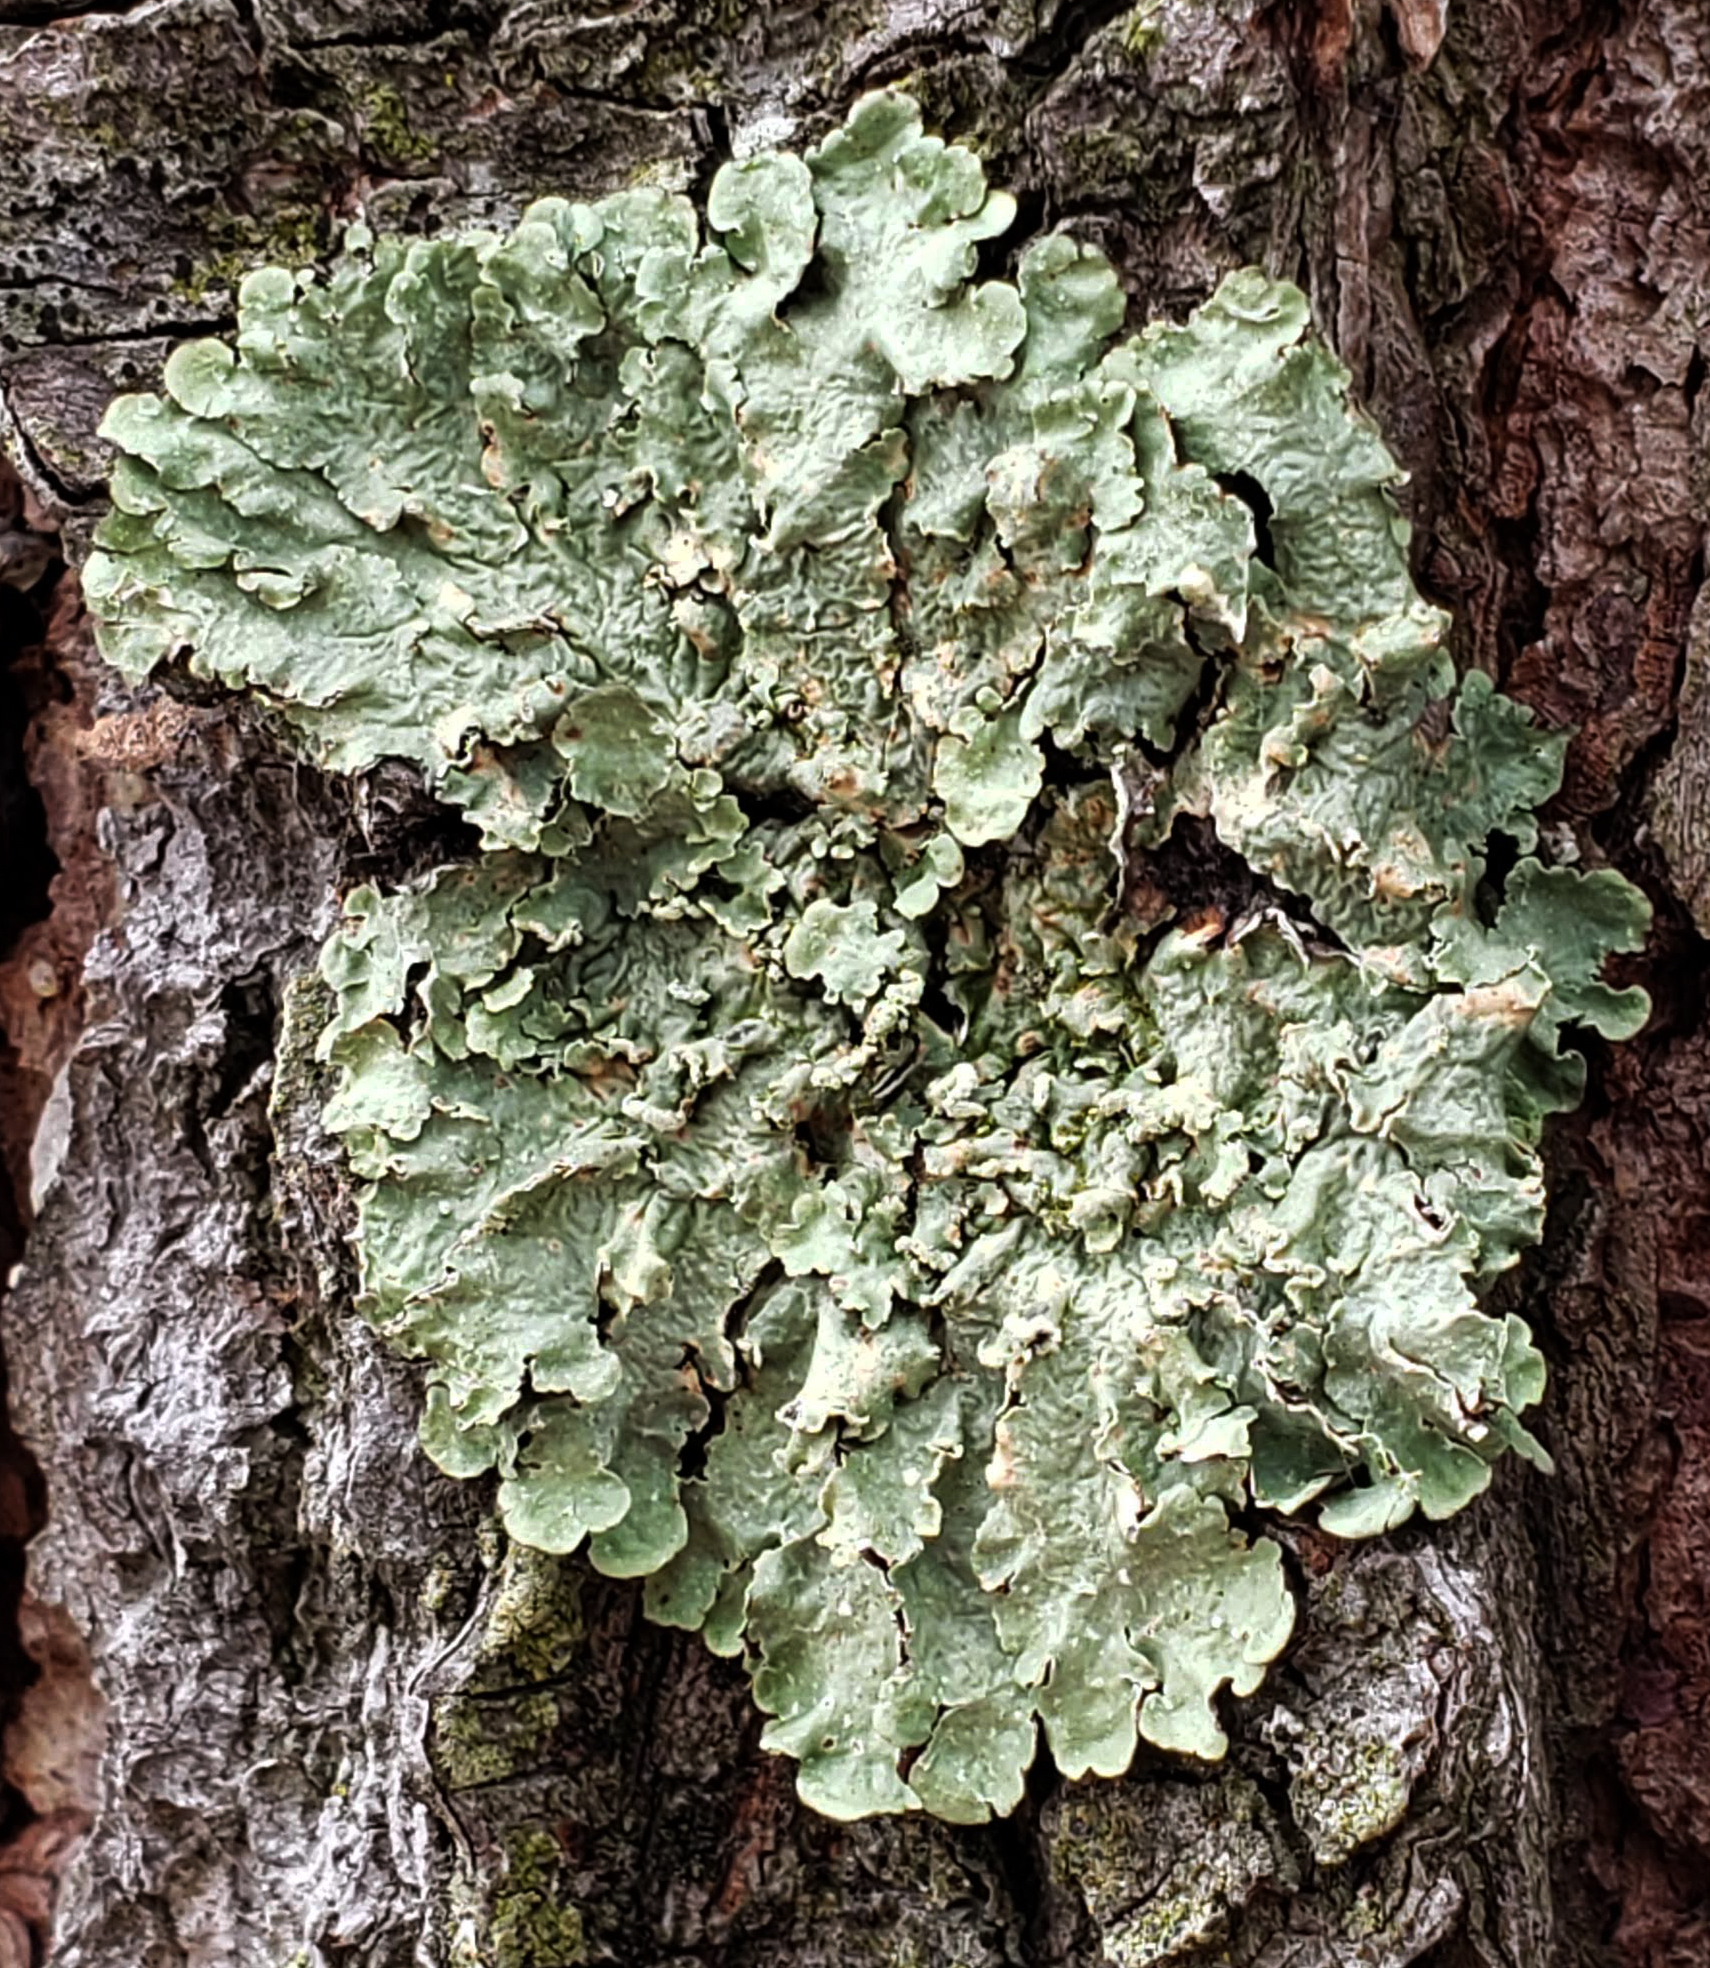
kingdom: Fungi
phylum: Ascomycota
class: Lecanoromycetes
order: Lecanorales
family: Parmeliaceae
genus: Flavopunctelia
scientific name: Flavopunctelia soredica
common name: Powder-edged speckled greenshield
